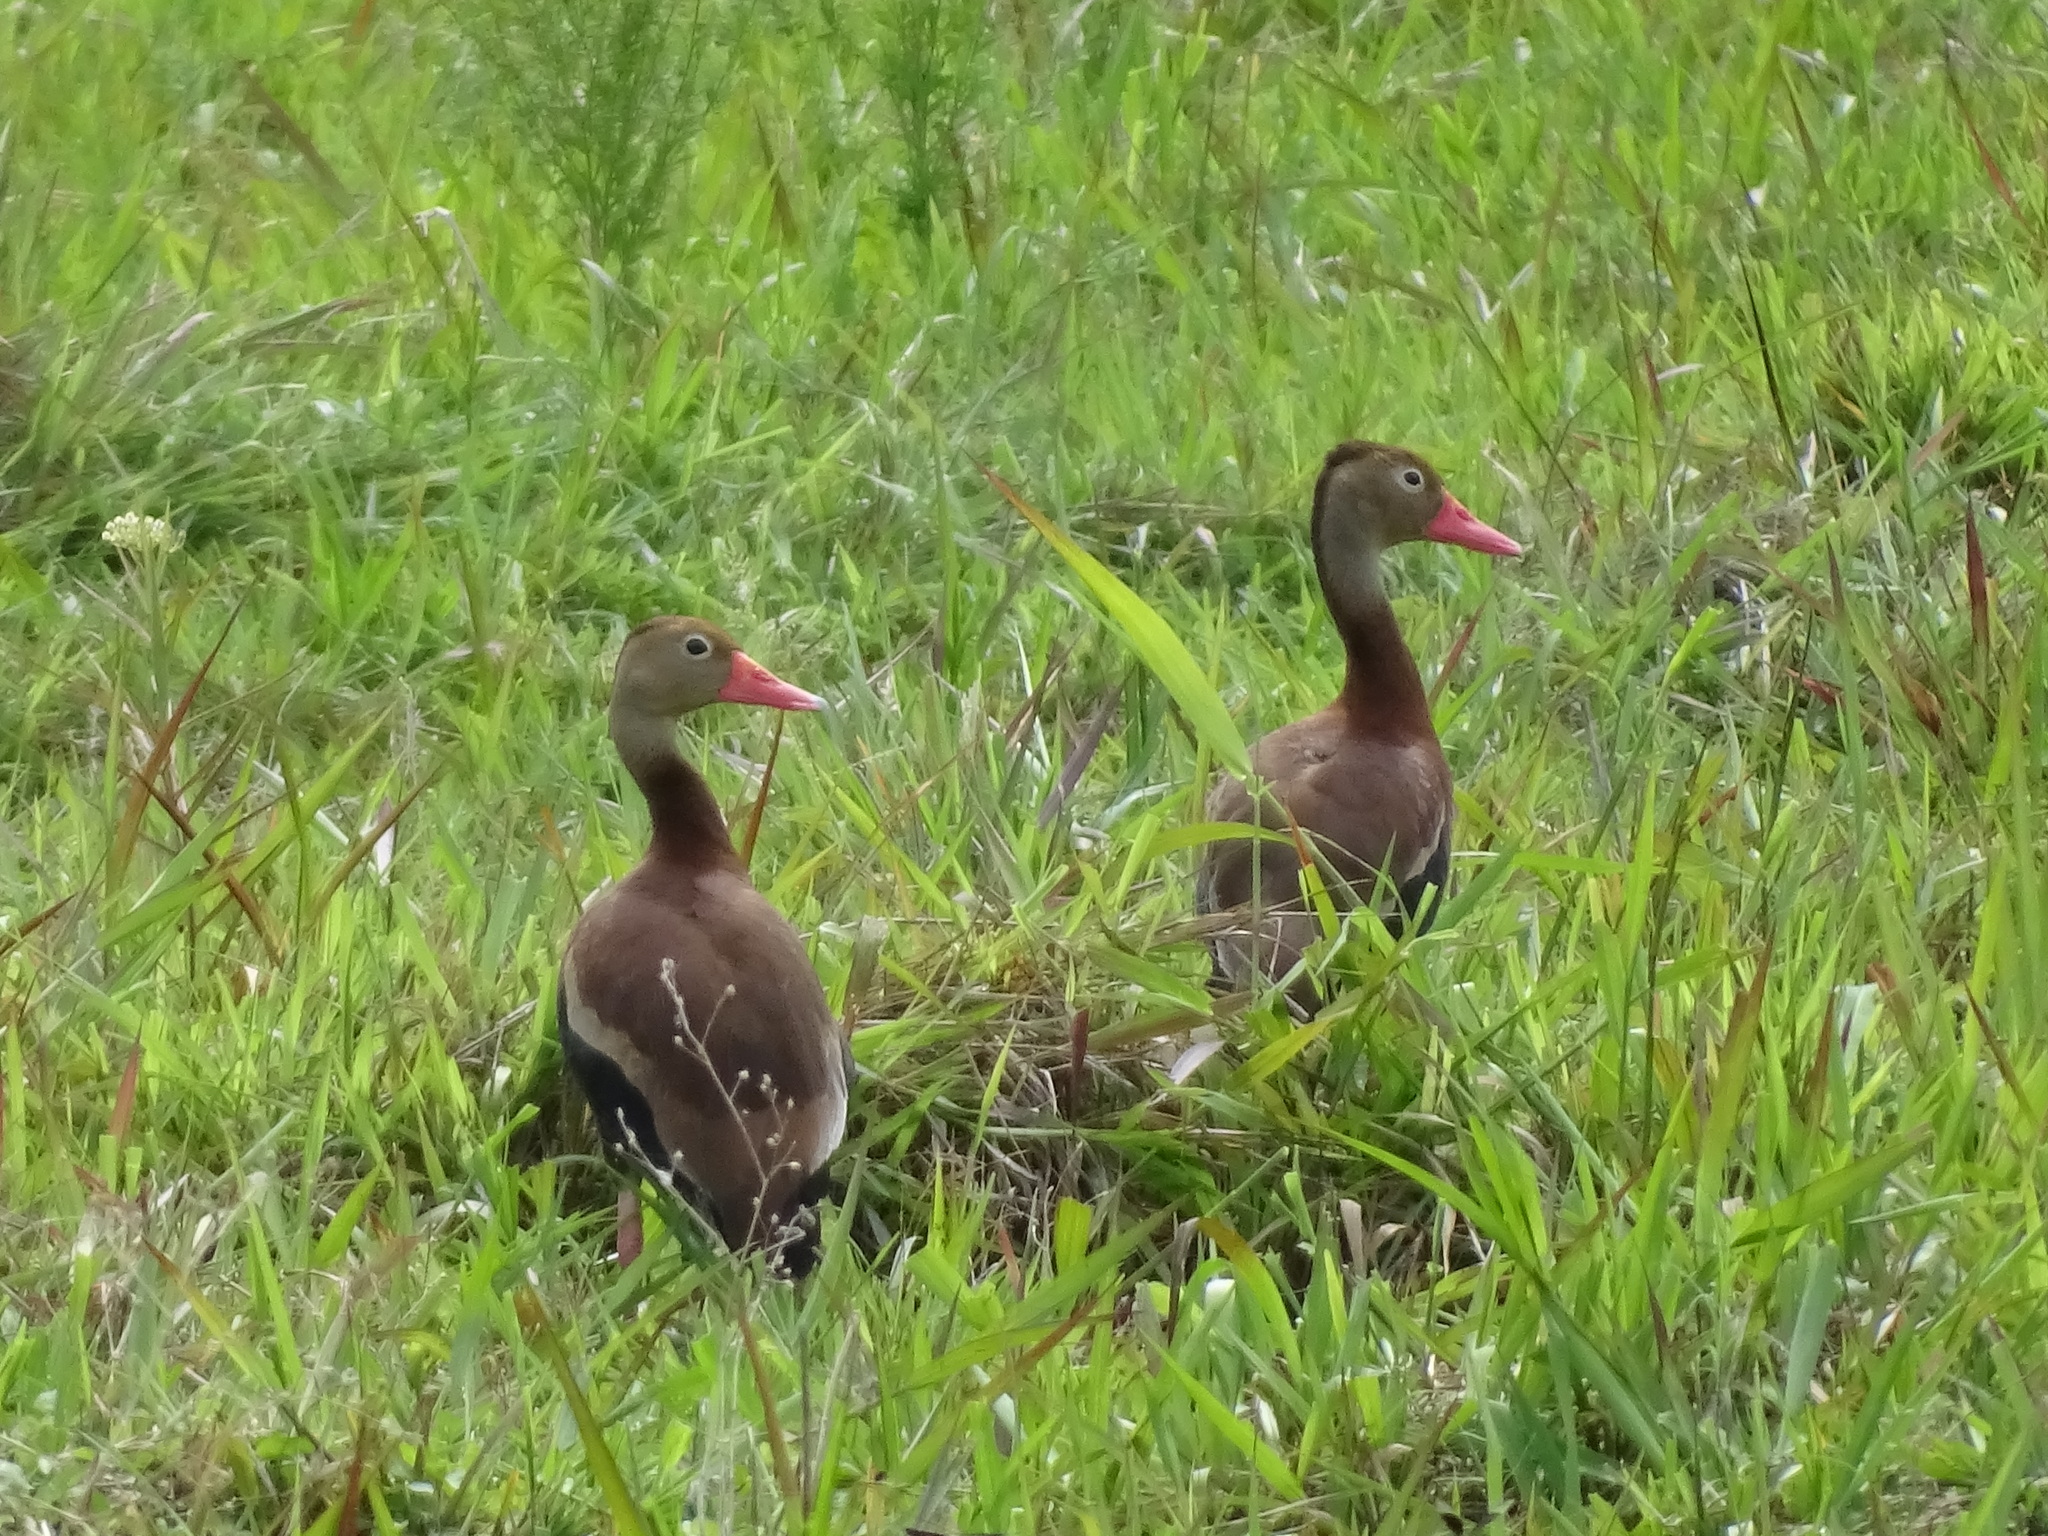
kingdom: Animalia
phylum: Chordata
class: Aves
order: Anseriformes
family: Anatidae
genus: Dendrocygna
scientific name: Dendrocygna autumnalis
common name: Black-bellied whistling duck
